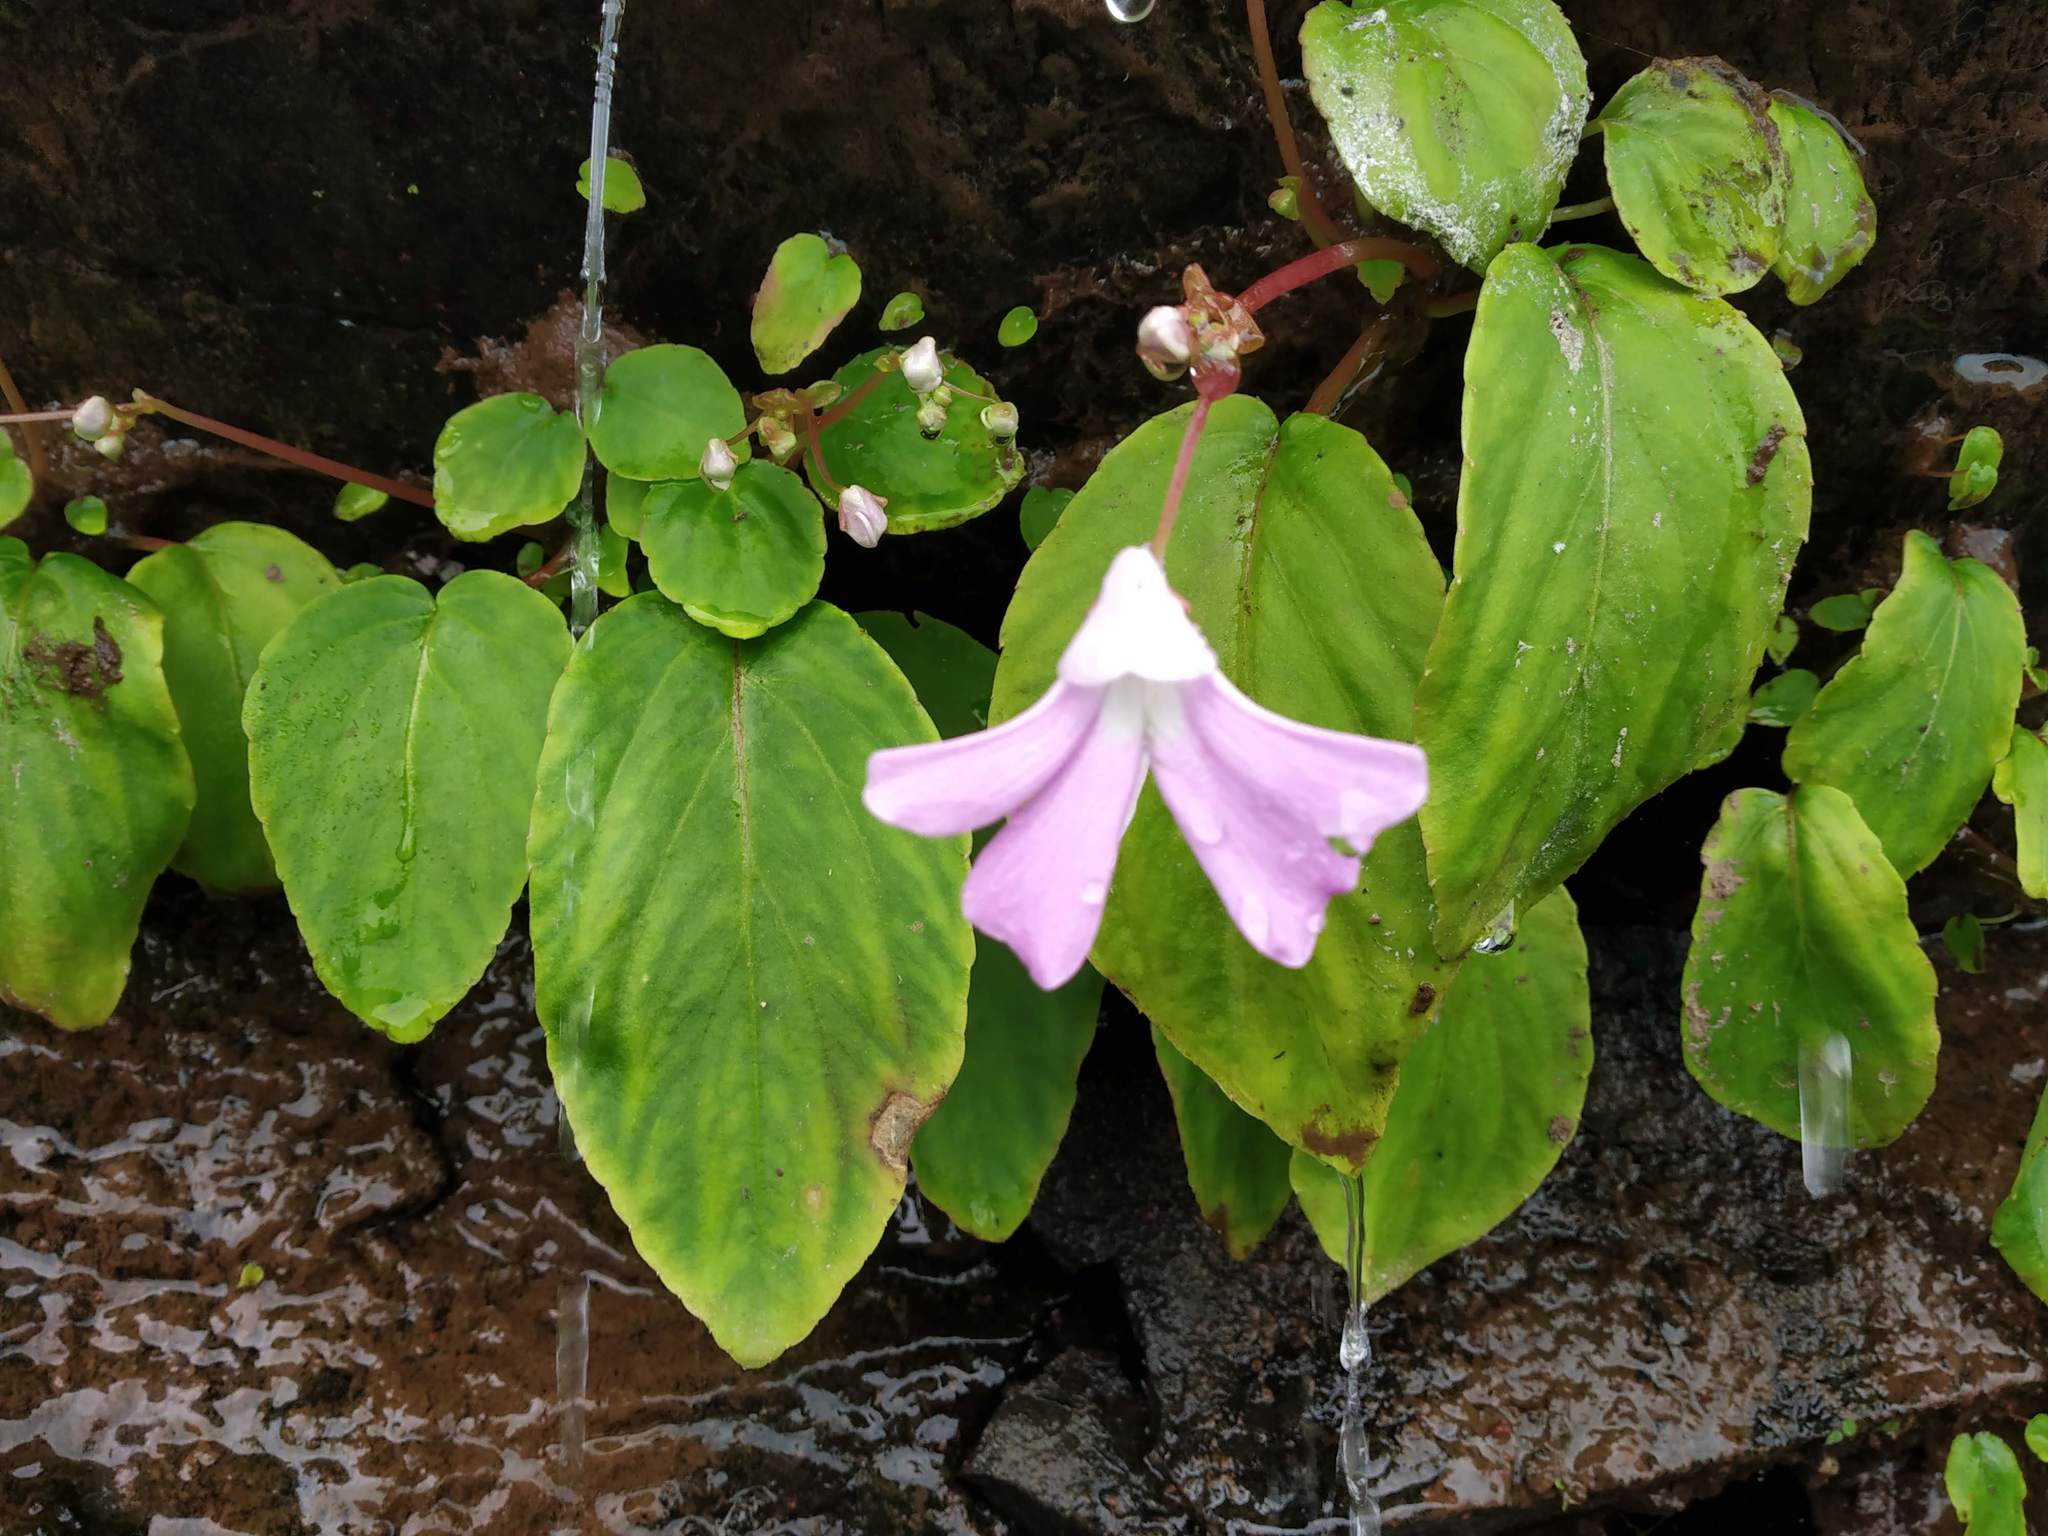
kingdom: Plantae
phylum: Tracheophyta
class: Magnoliopsida
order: Ericales
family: Balsaminaceae
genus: Impatiens
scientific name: Impatiens acaulis
